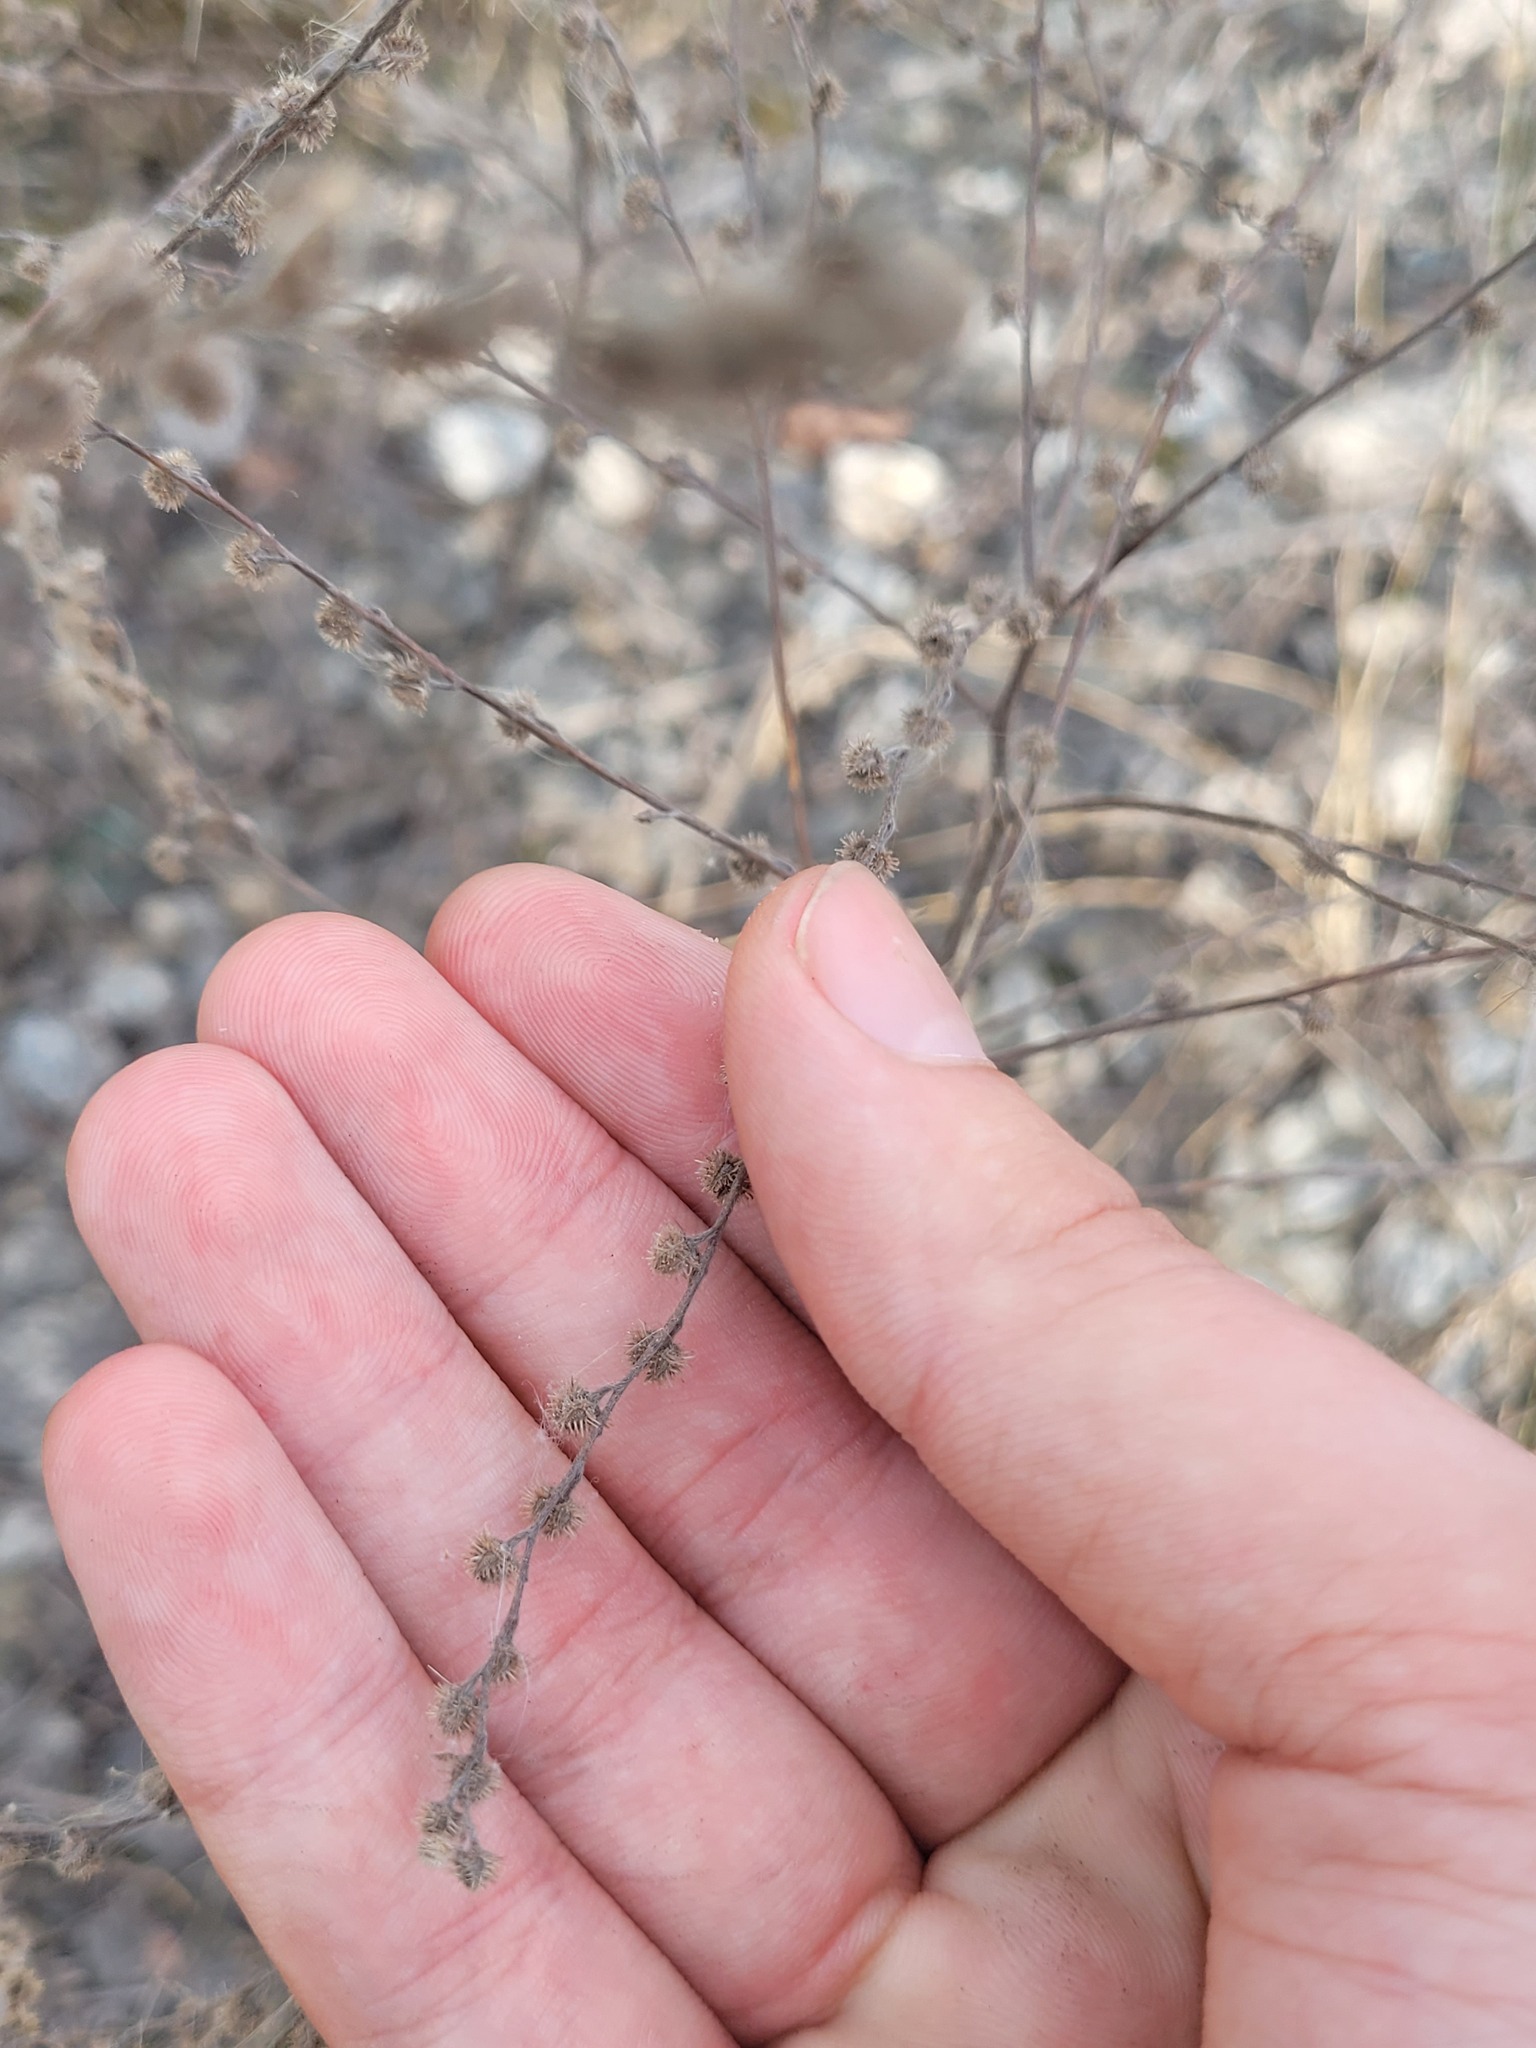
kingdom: Plantae
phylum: Tracheophyta
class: Magnoliopsida
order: Boraginales
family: Boraginaceae
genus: Lappula
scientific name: Lappula squarrosa
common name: European stickseed
